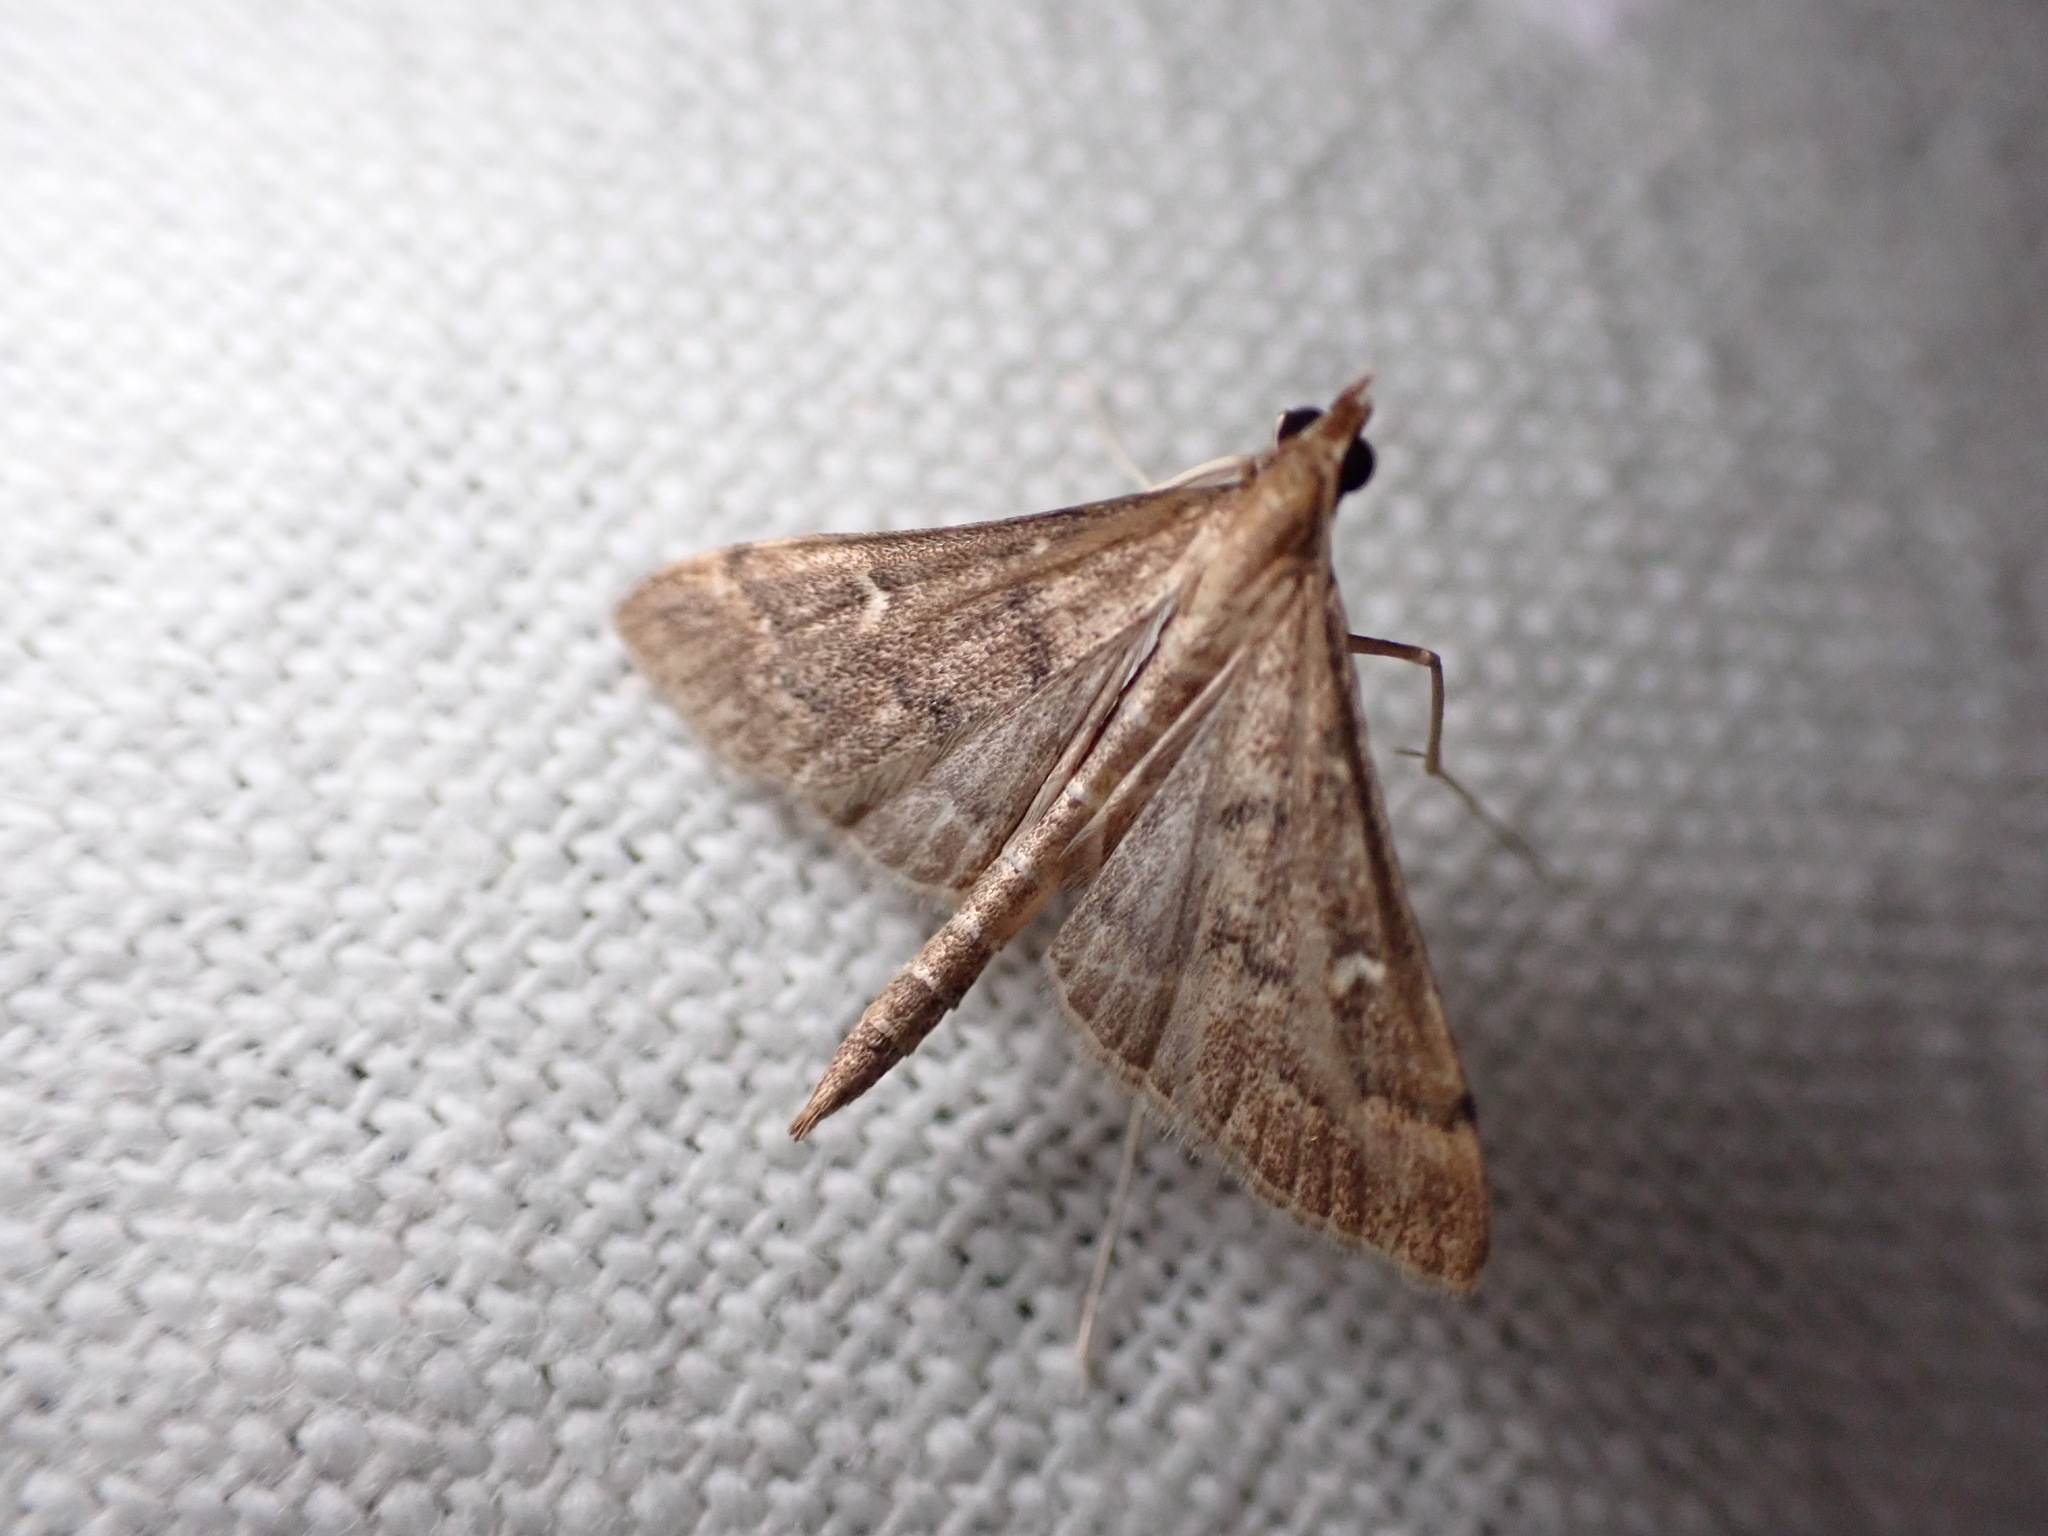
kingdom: Animalia
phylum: Arthropoda
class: Insecta
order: Lepidoptera
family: Crambidae
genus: Stenia
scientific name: Stenia Dolicharthria punctalis
